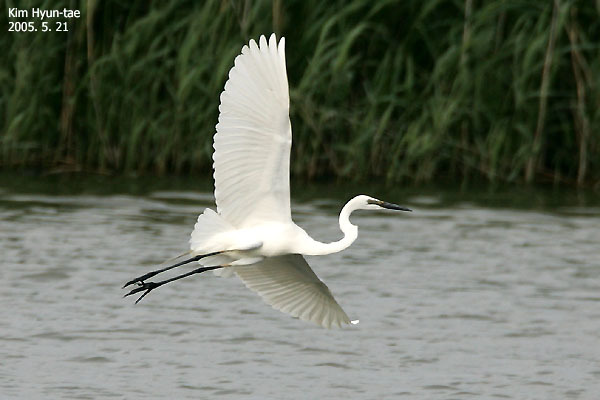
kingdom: Animalia
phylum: Chordata
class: Aves
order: Pelecaniformes
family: Ardeidae
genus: Ardea
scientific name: Ardea alba
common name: Great egret
